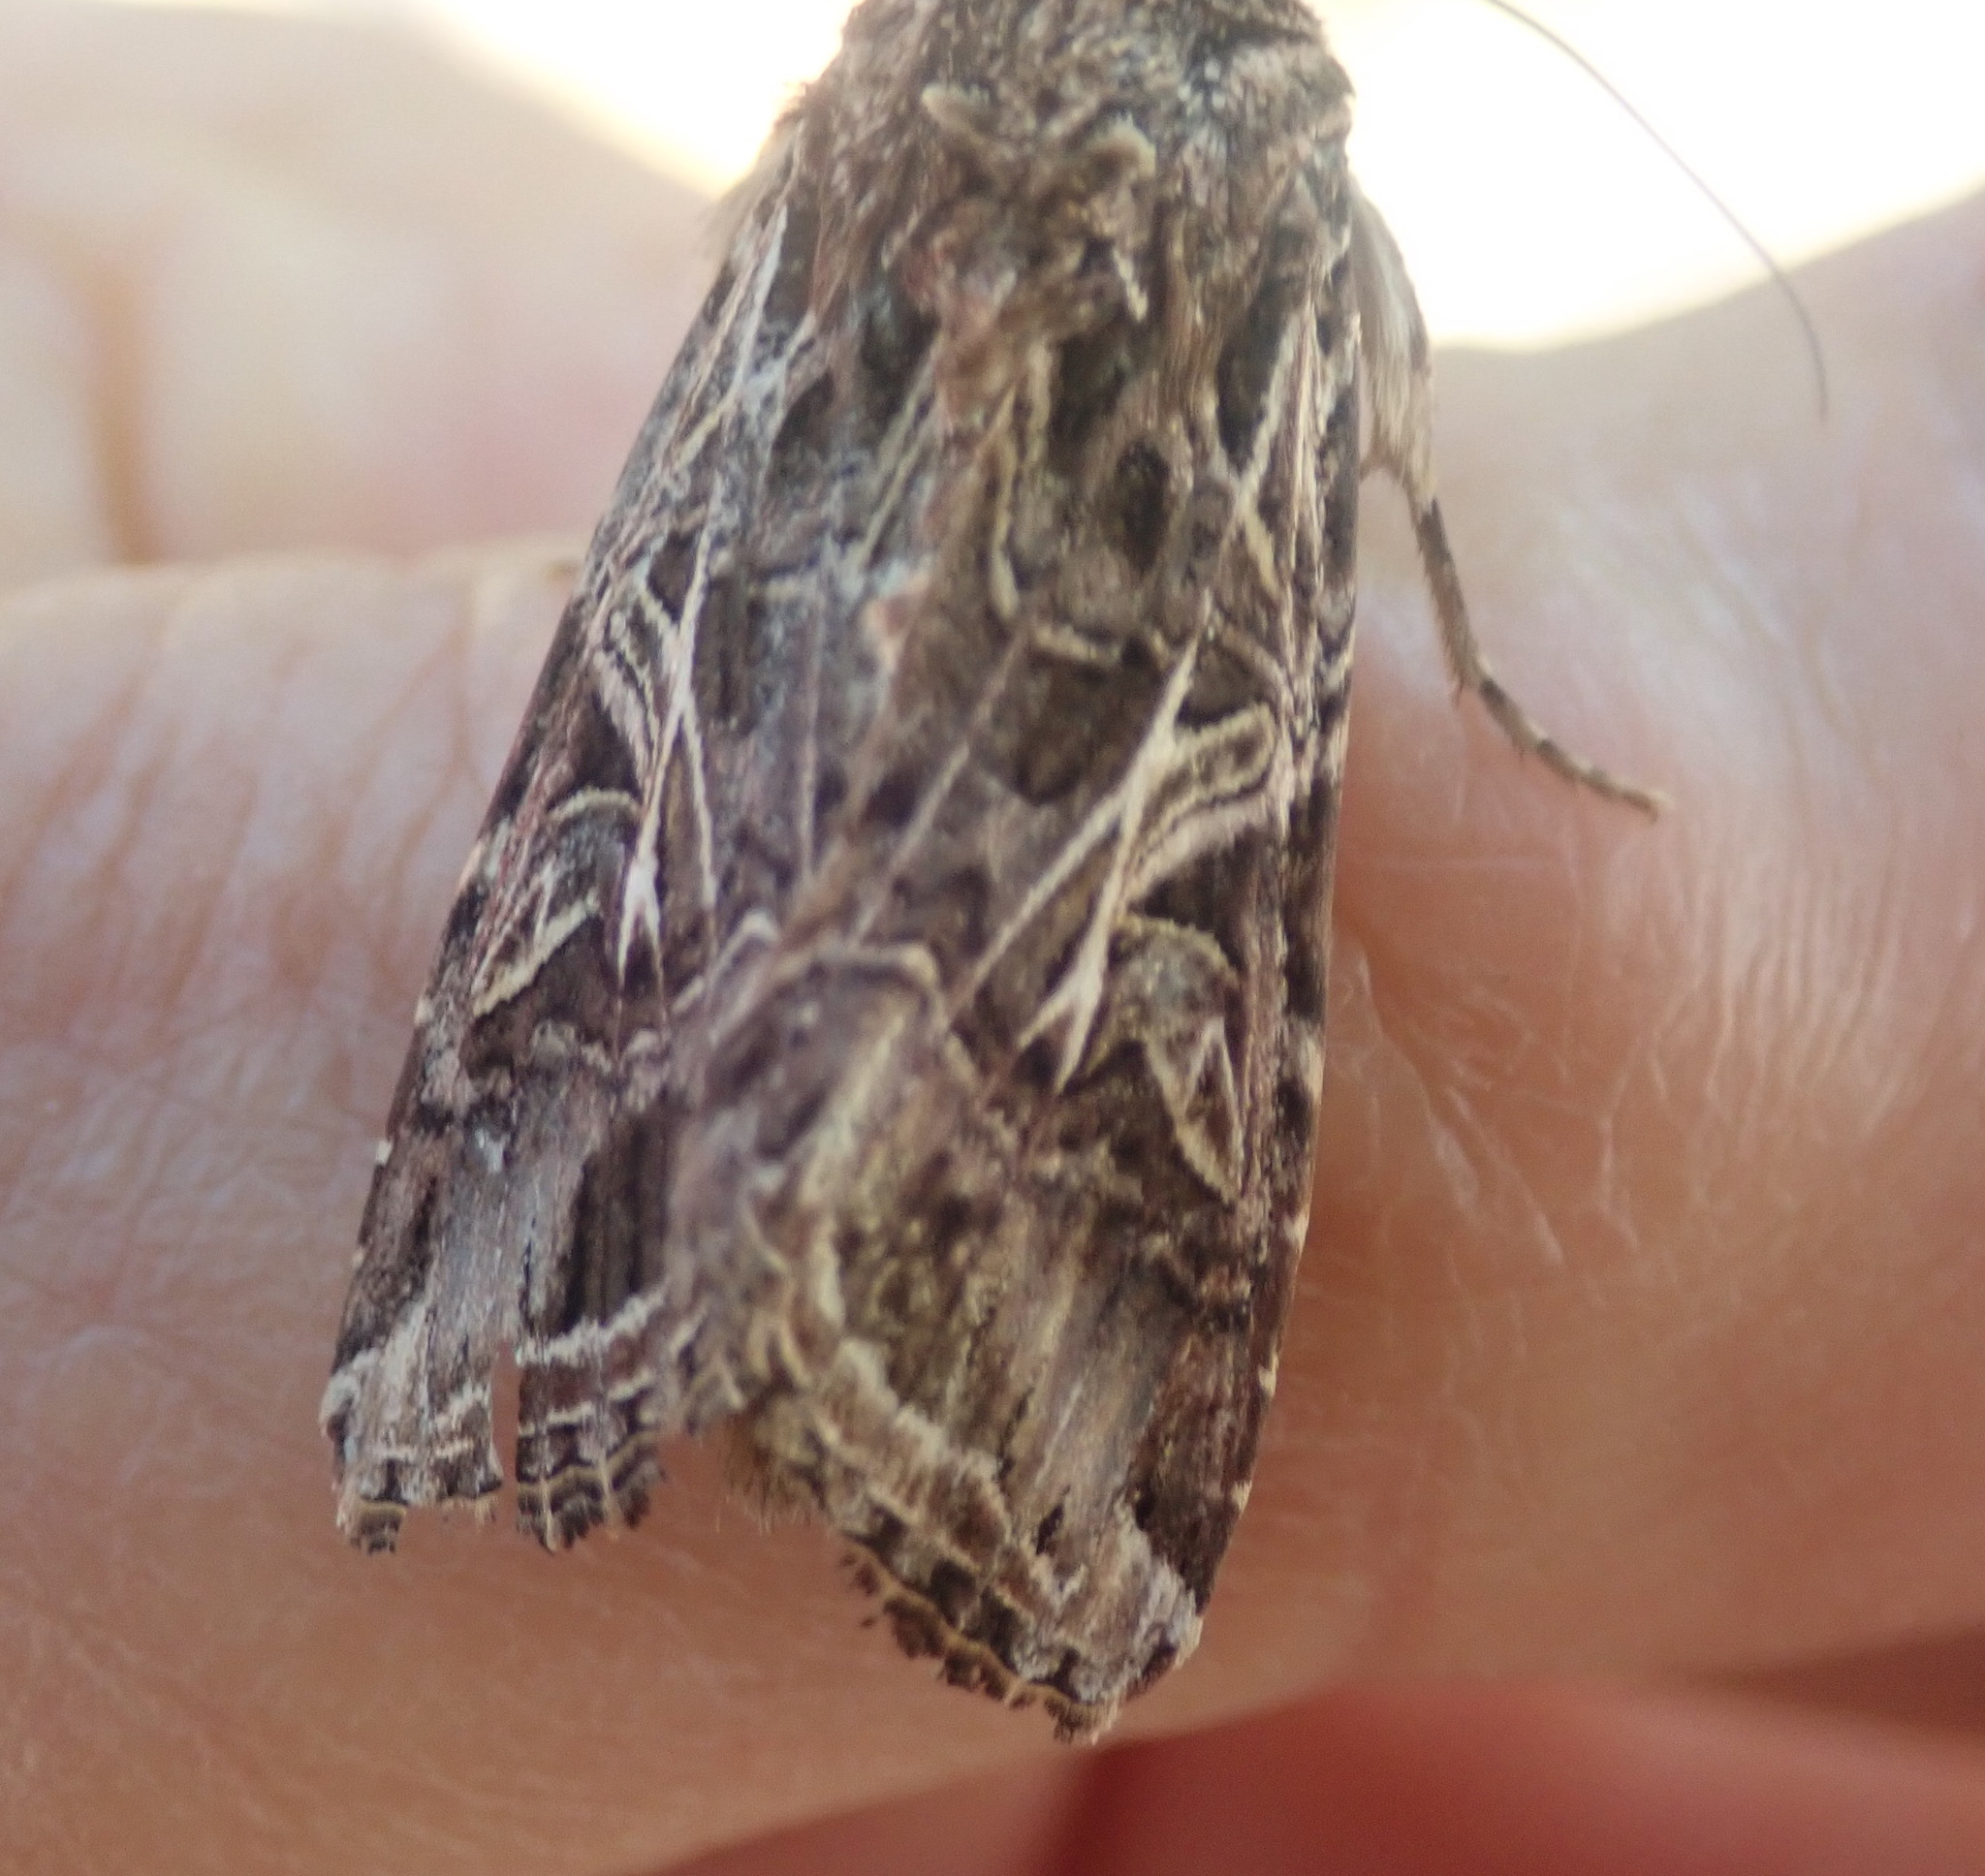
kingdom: Animalia
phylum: Arthropoda
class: Insecta
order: Lepidoptera
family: Noctuidae
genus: Spodoptera
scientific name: Spodoptera litura
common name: Asian cotton leafworm
